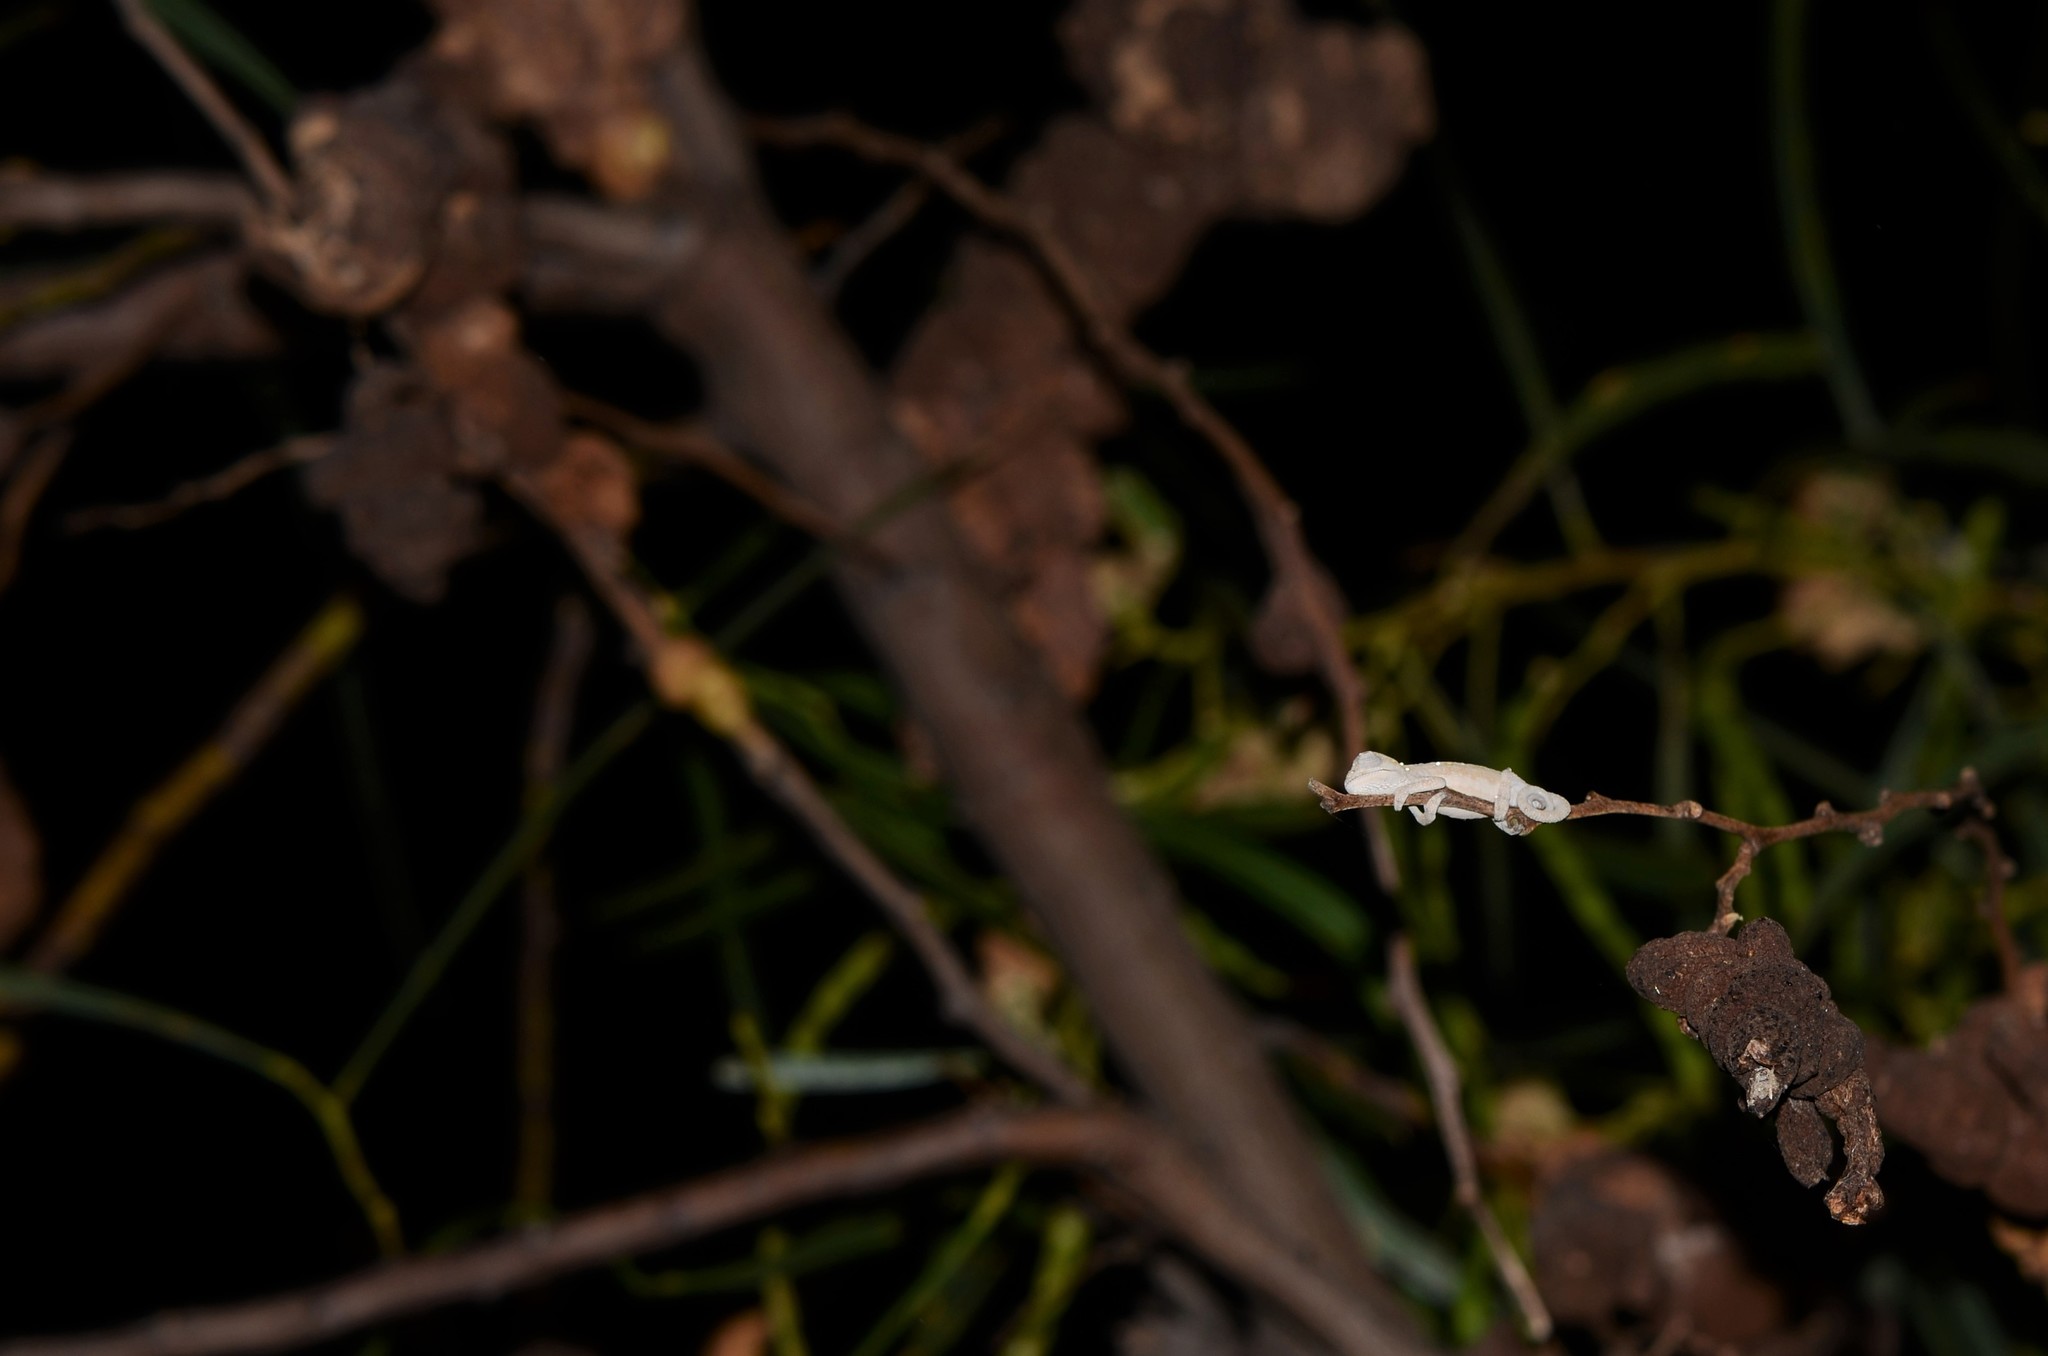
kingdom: Animalia
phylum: Chordata
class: Squamata
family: Chamaeleonidae
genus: Bradypodion
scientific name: Bradypodion pumilum
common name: Cape dwarf chameleon
